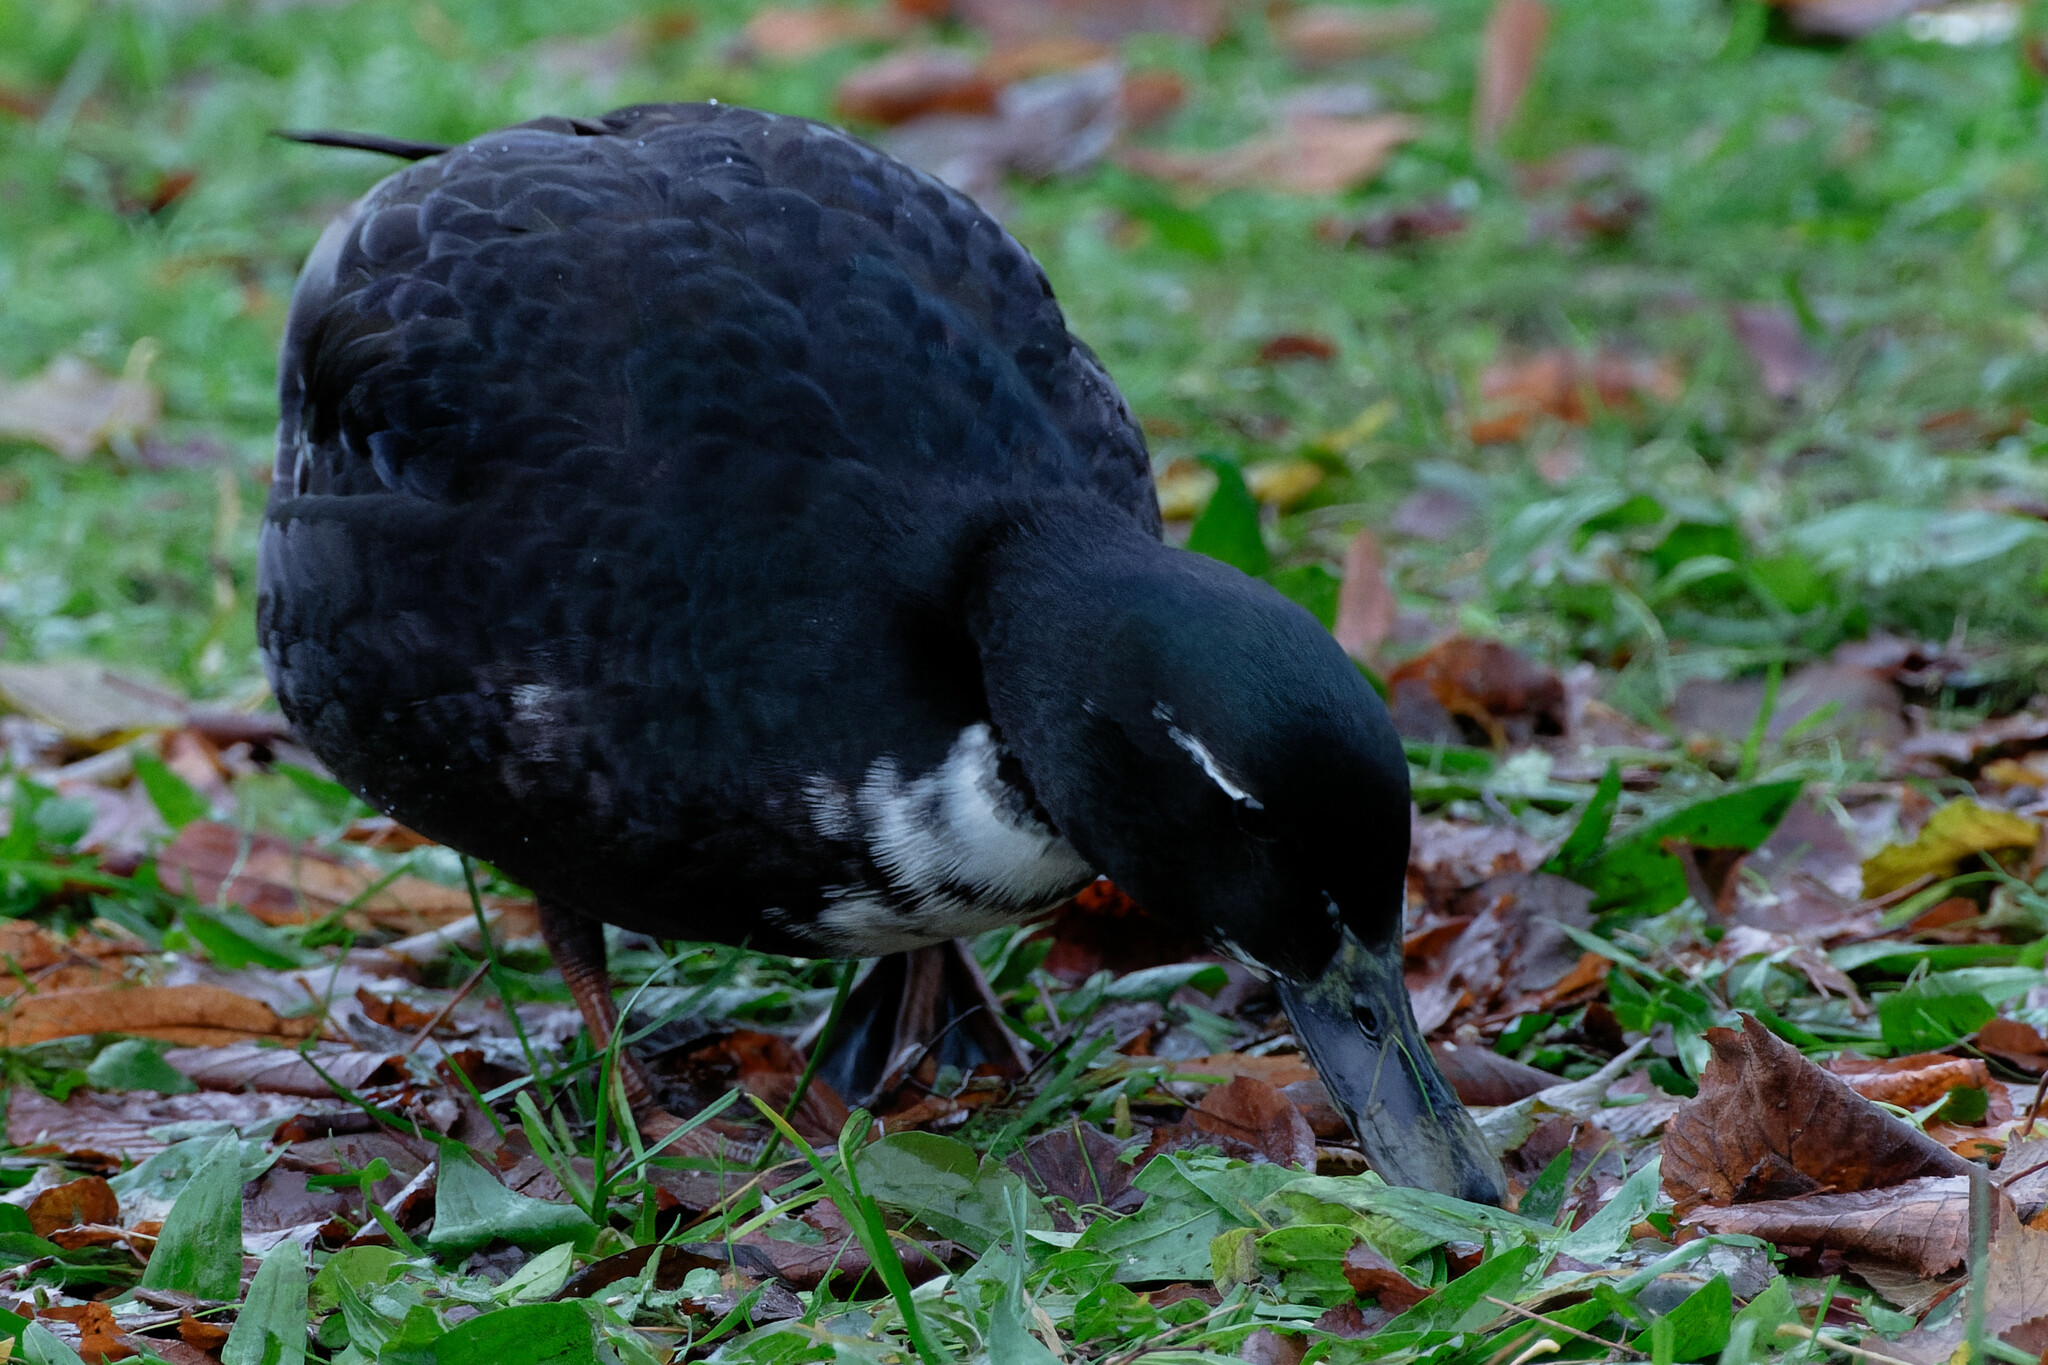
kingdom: Animalia
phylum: Chordata
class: Aves
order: Anseriformes
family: Anatidae
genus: Anas
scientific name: Anas platyrhynchos
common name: Mallard
